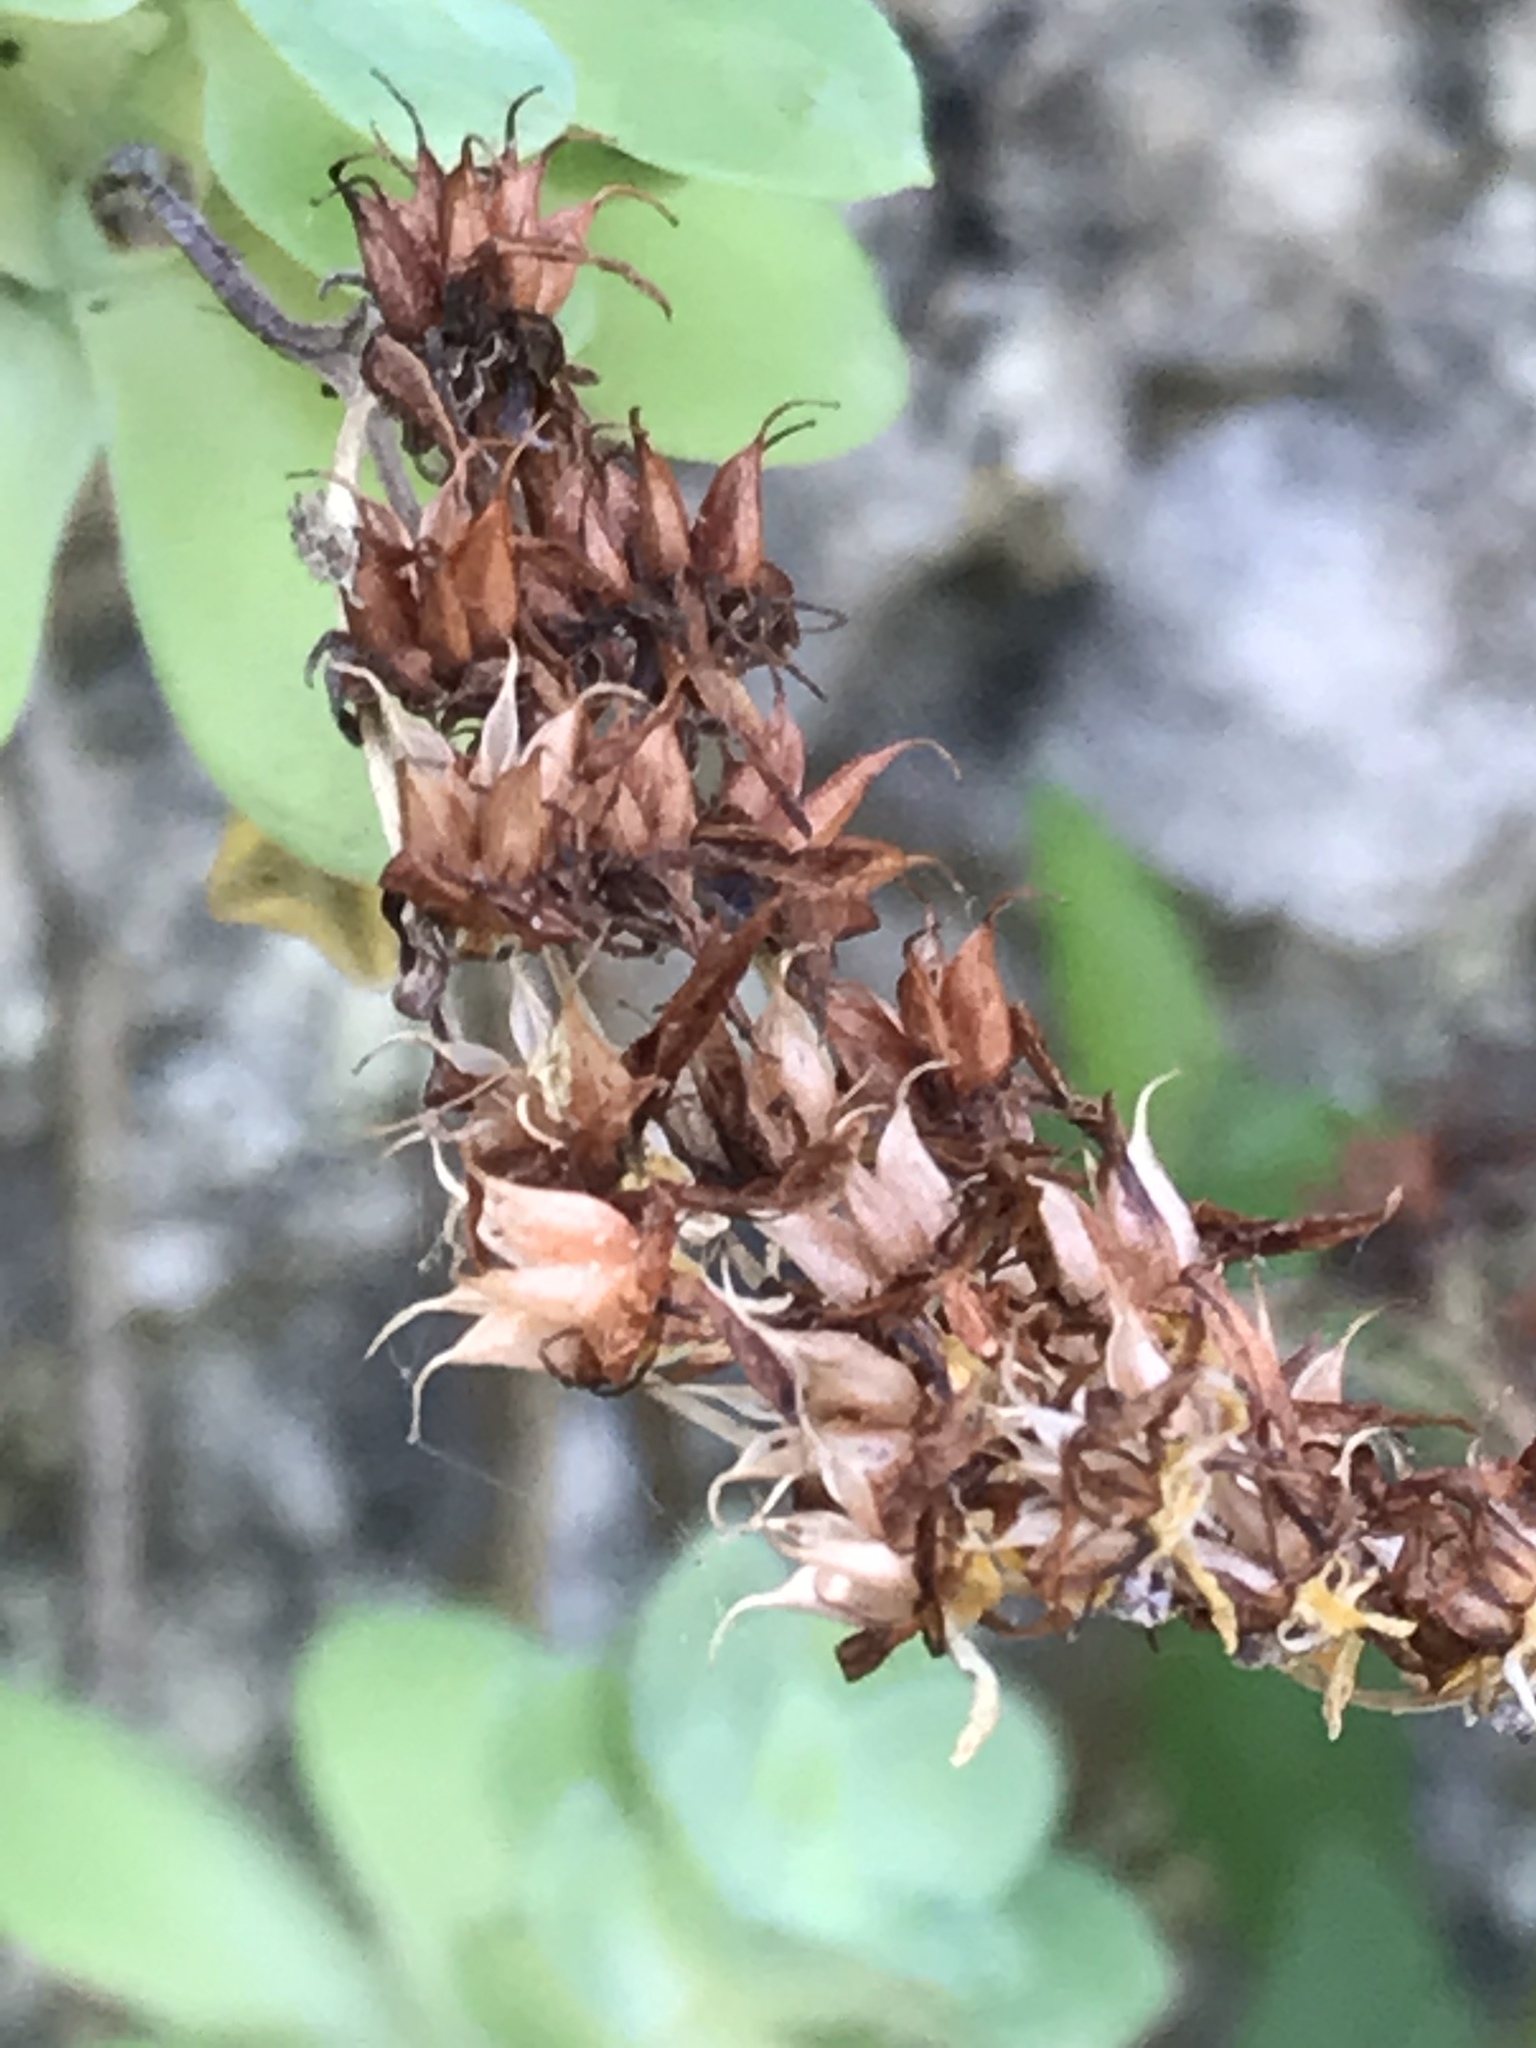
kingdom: Plantae
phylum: Tracheophyta
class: Magnoliopsida
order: Saxifragales
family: Crassulaceae
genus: Sedum
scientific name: Sedum palmeri
